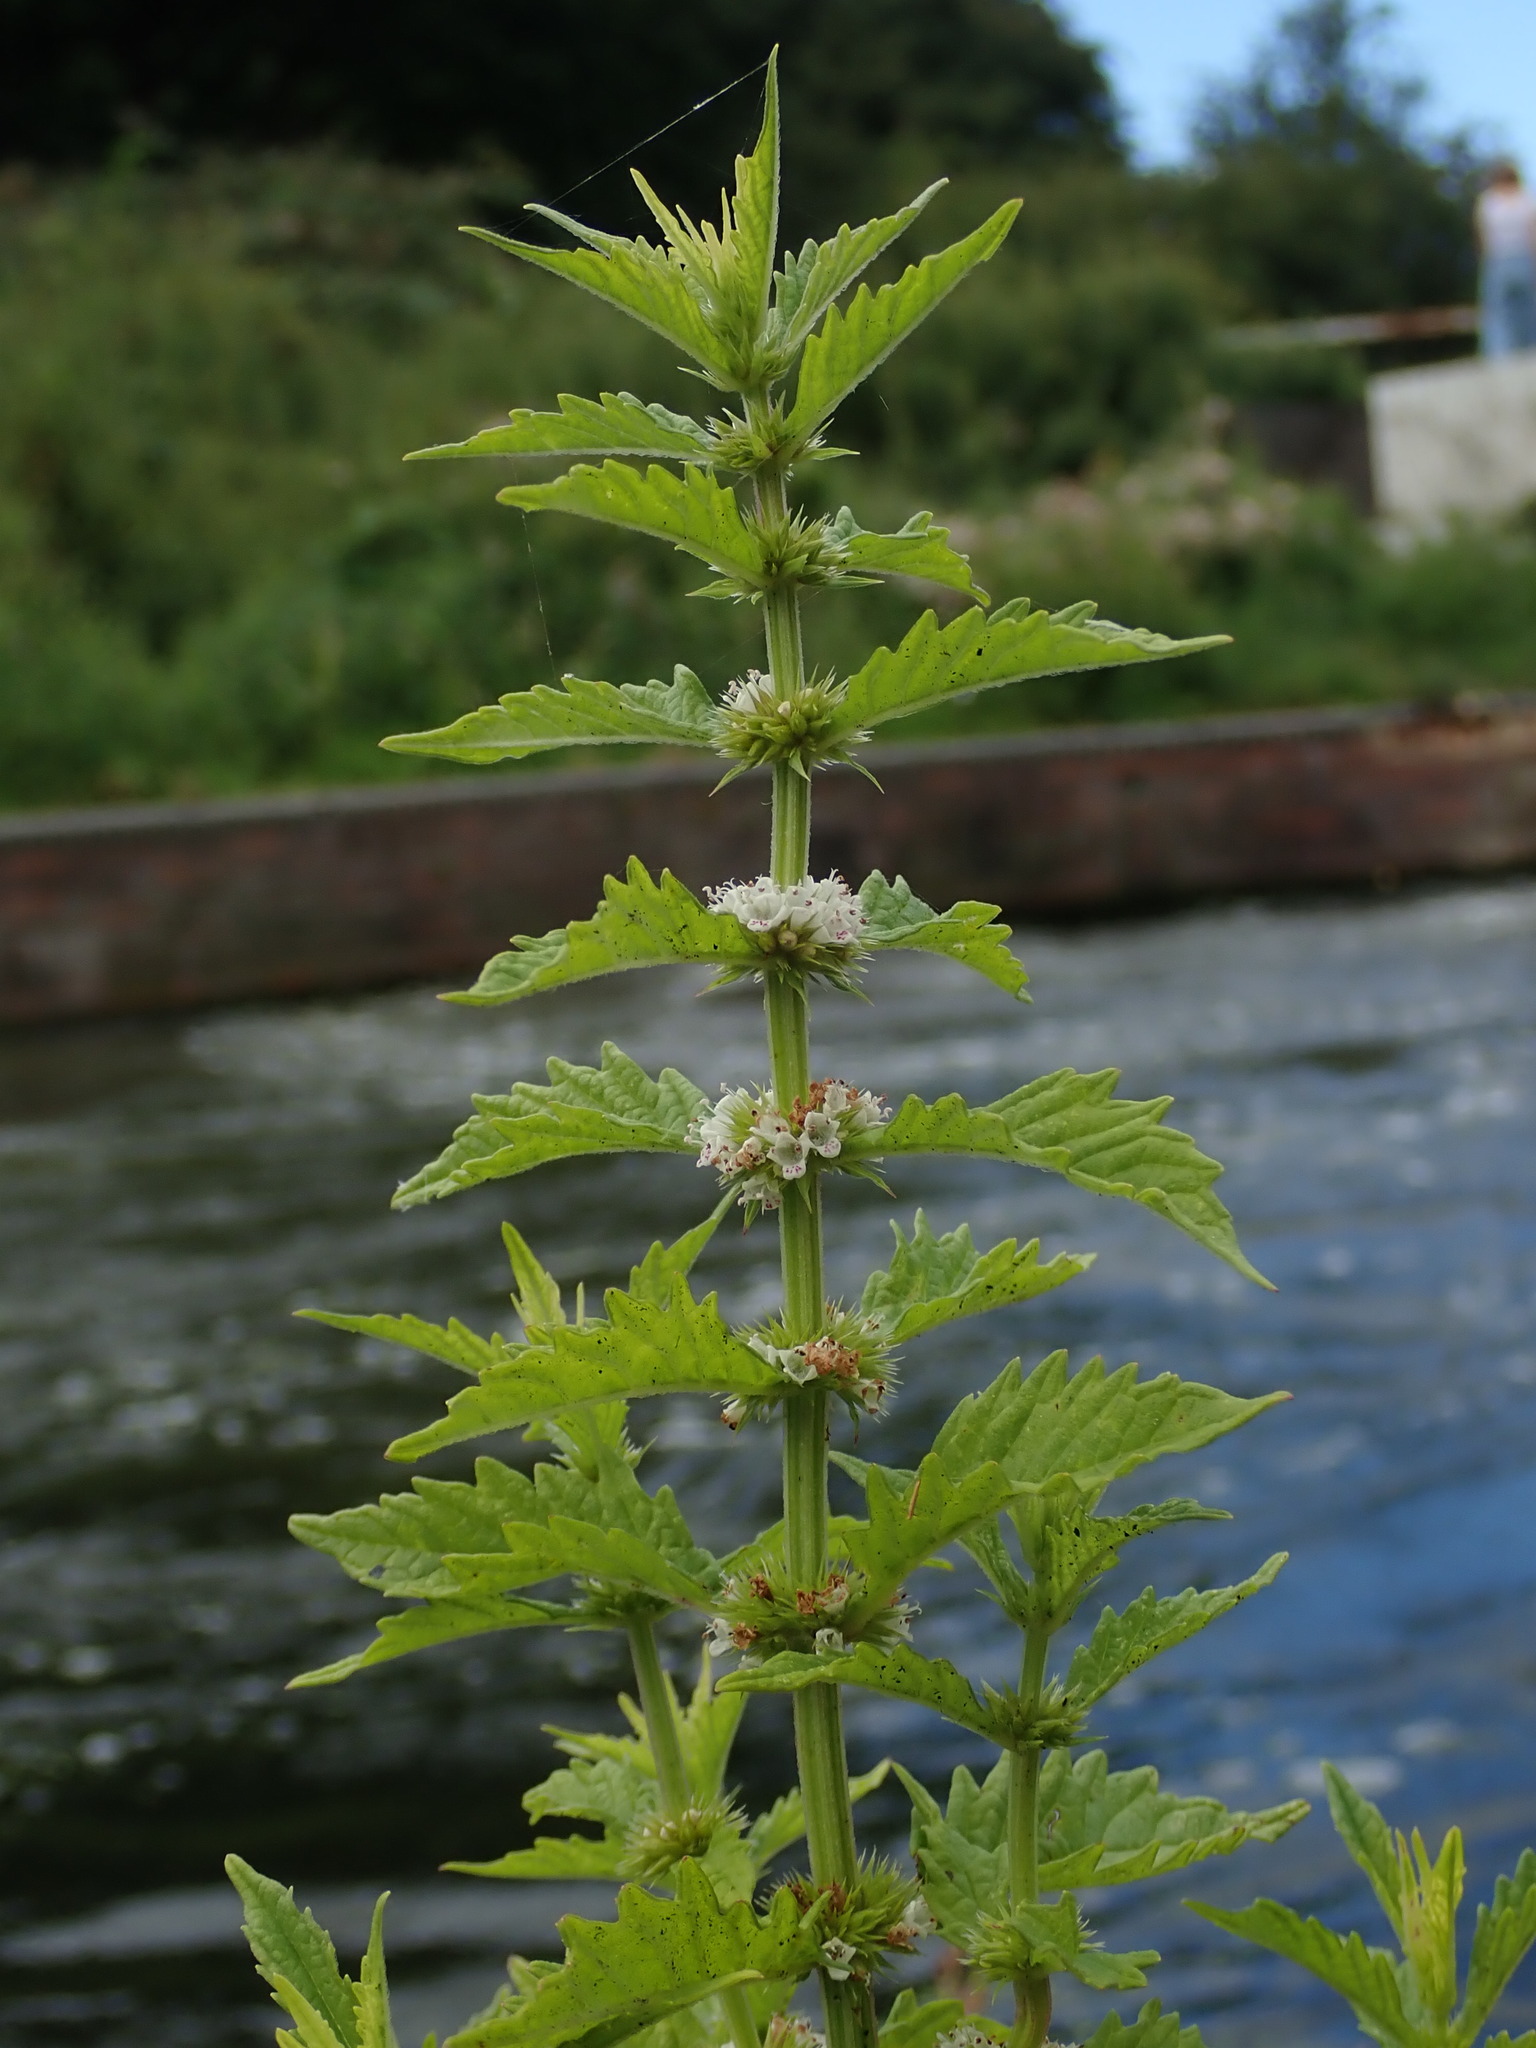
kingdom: Plantae
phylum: Tracheophyta
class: Magnoliopsida
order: Lamiales
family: Lamiaceae
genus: Lycopus
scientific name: Lycopus europaeus
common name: European bugleweed
